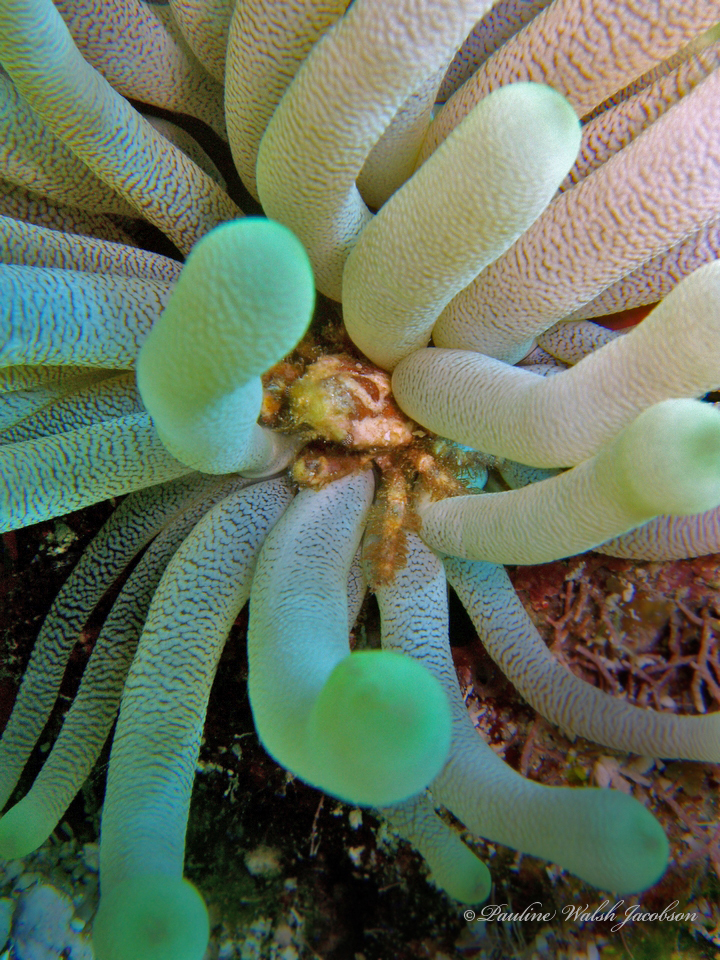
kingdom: Animalia
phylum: Arthropoda
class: Malacostraca
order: Decapoda
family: Mithracidae
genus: Mithraculus
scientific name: Mithraculus cinctimanus
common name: Banded clinging crab
